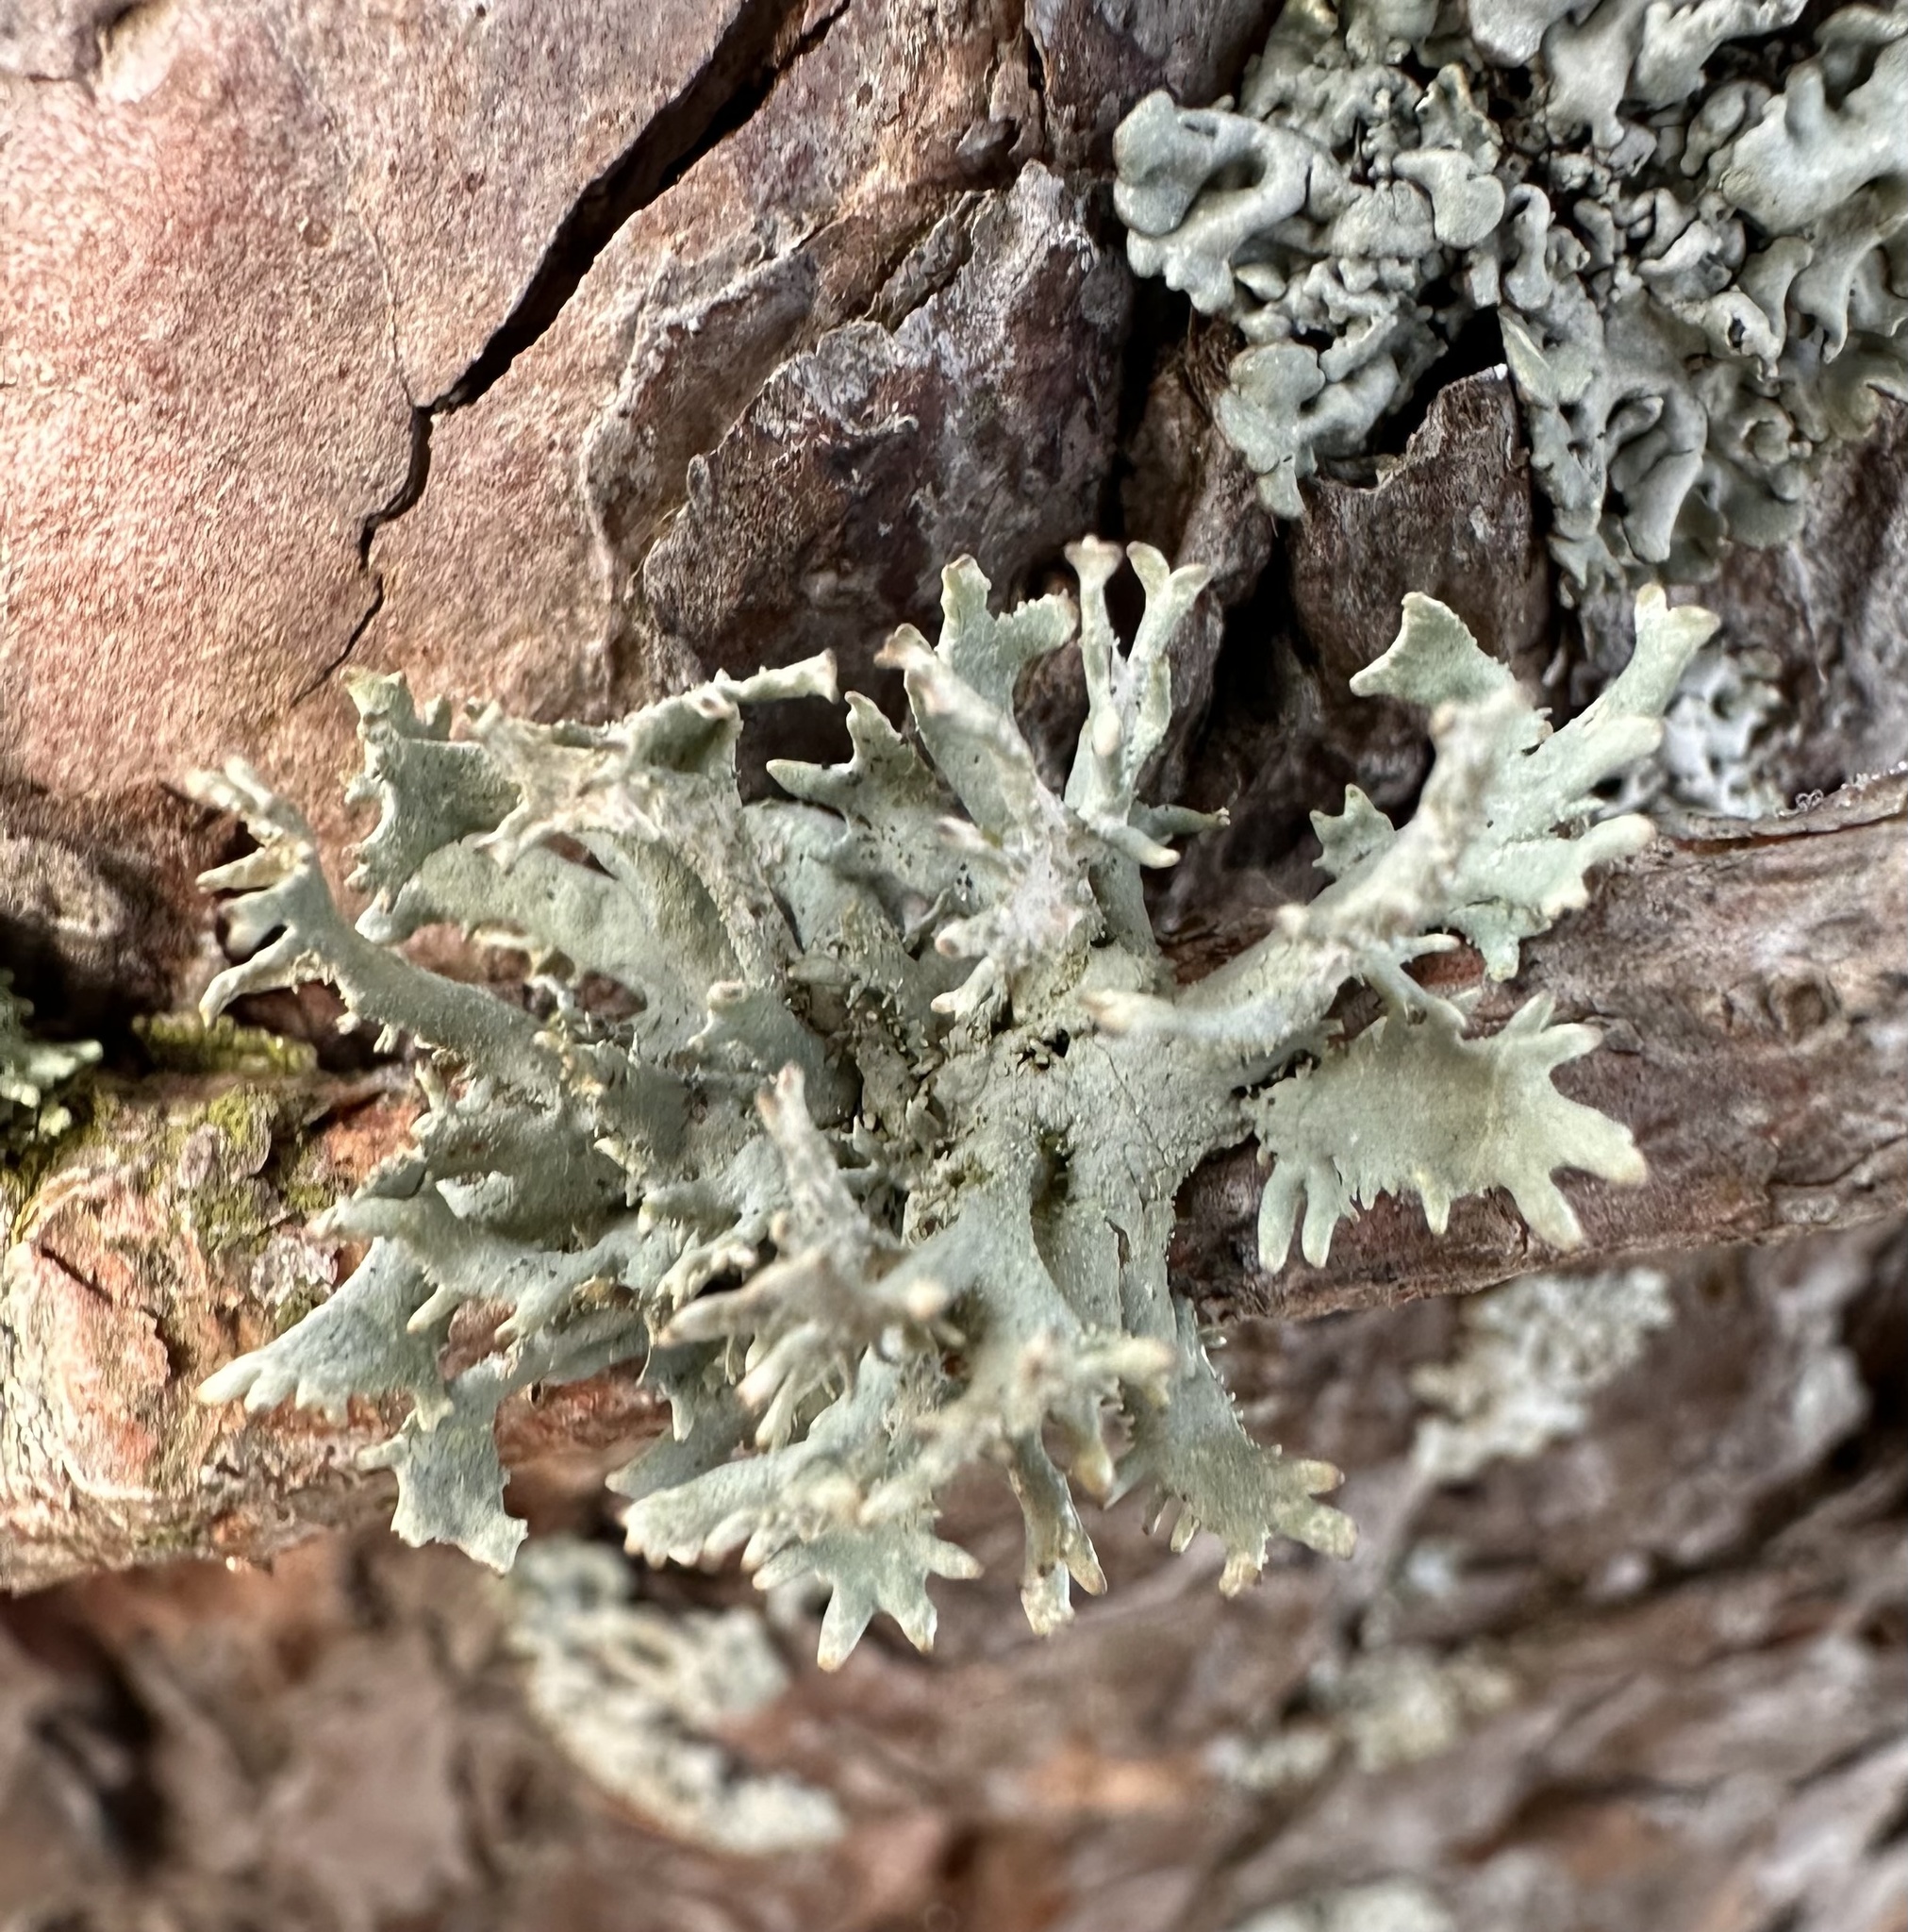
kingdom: Fungi
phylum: Ascomycota
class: Lecanoromycetes
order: Lecanorales
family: Parmeliaceae
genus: Pseudevernia
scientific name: Pseudevernia furfuracea
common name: Tree moss
